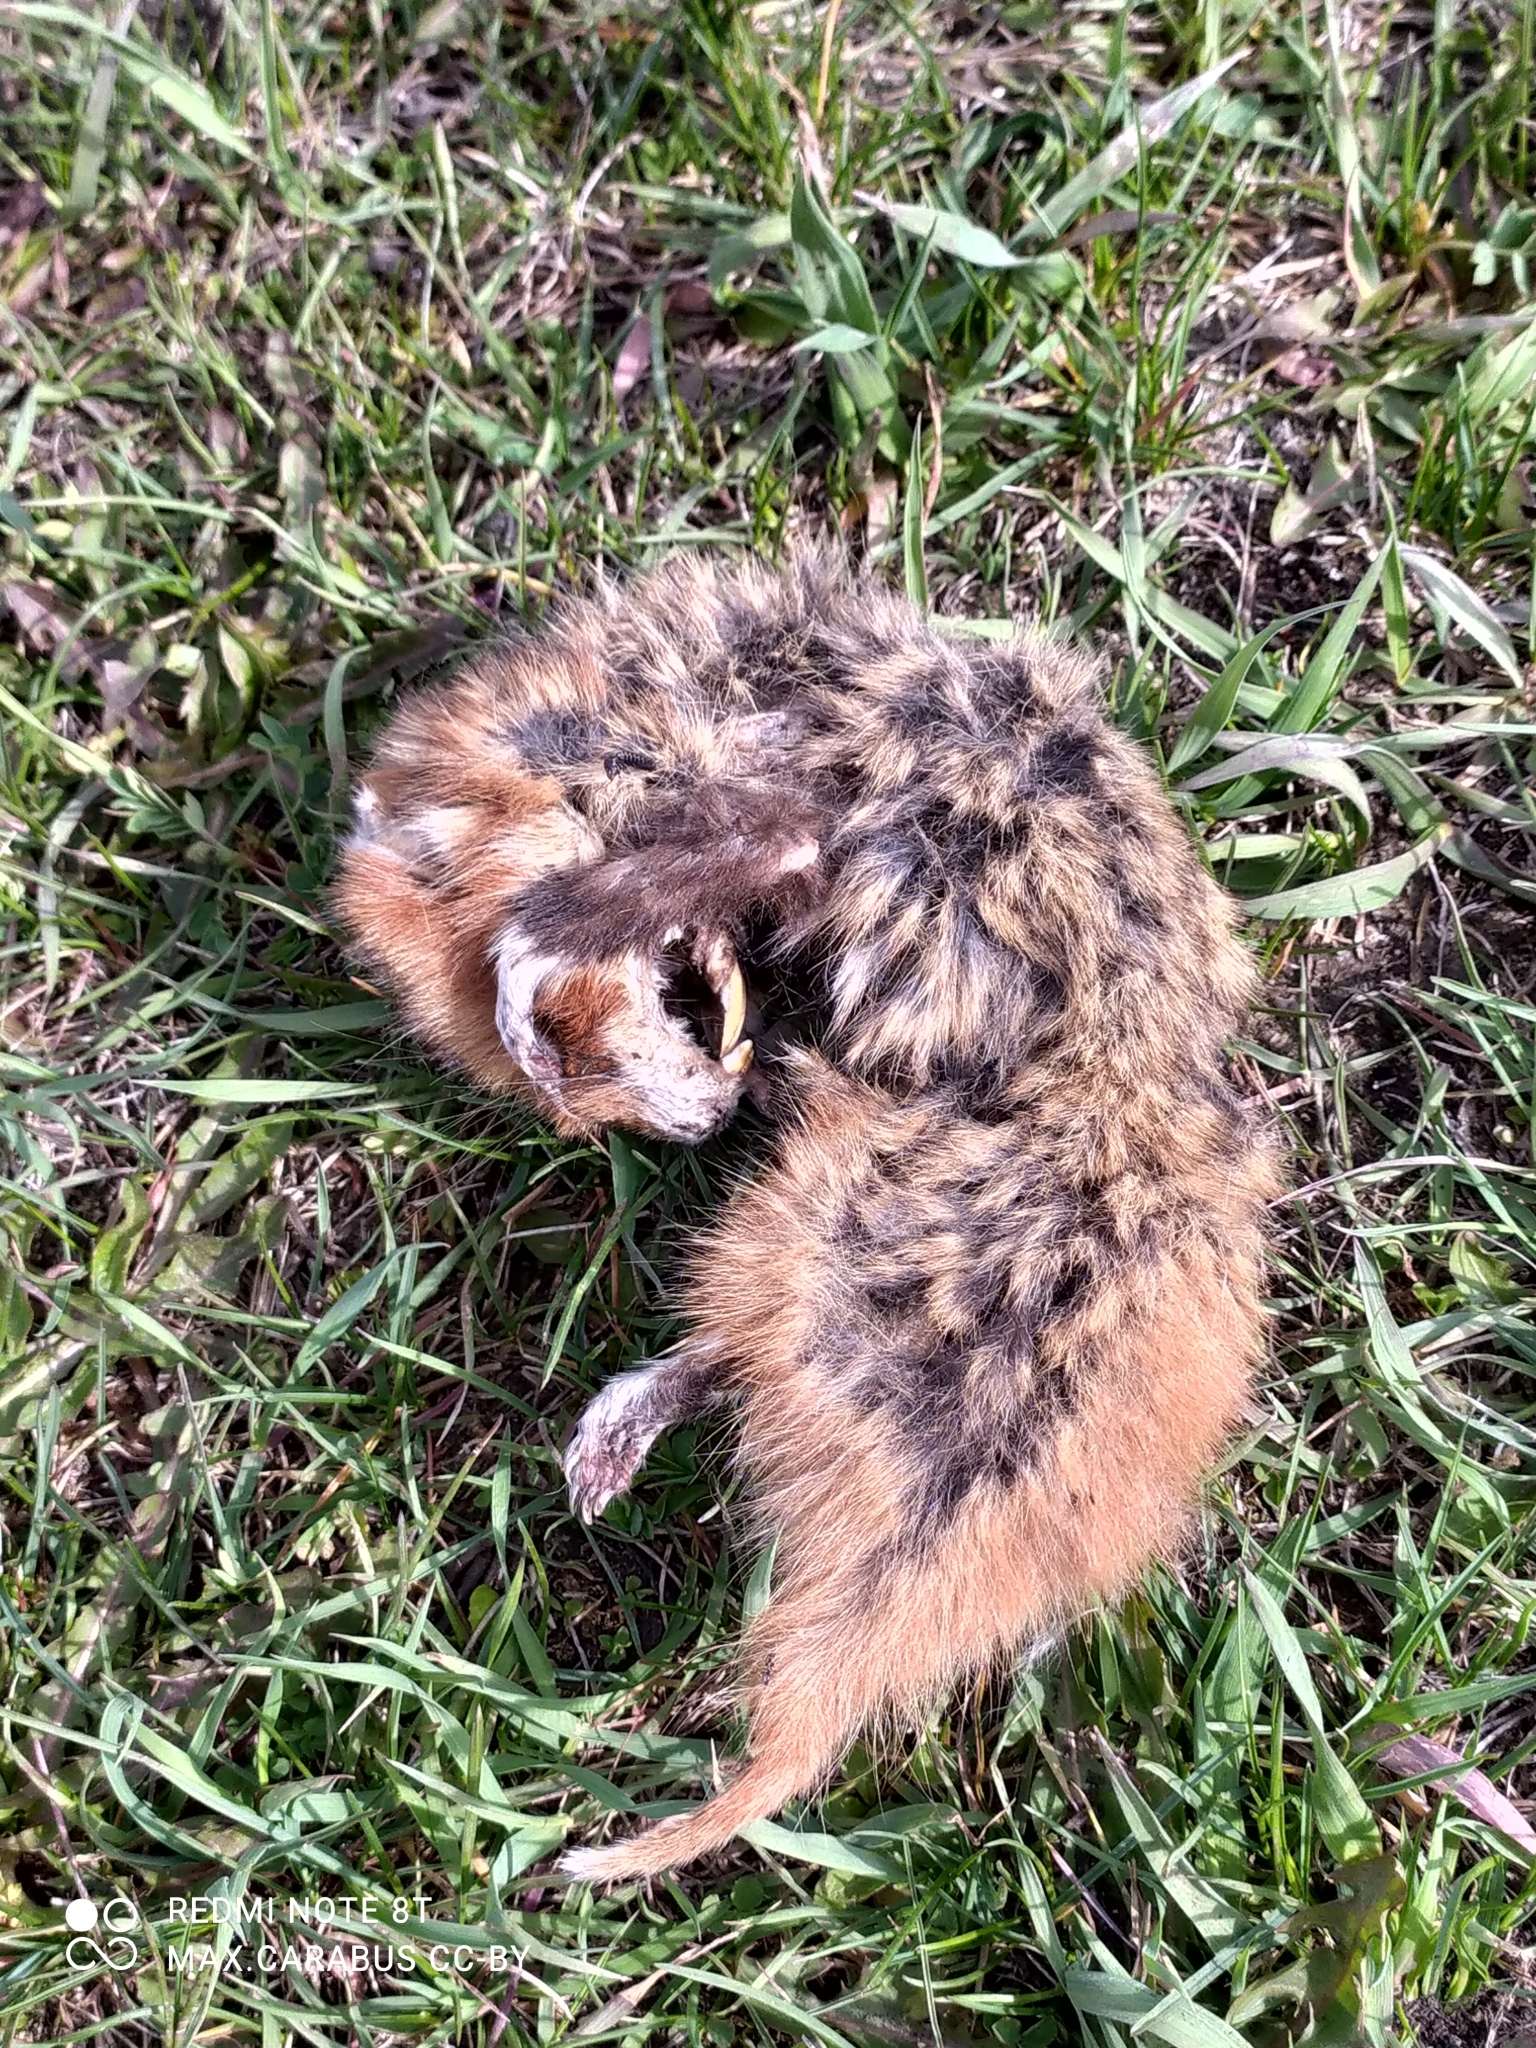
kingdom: Animalia
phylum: Chordata
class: Mammalia
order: Rodentia
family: Cricetidae
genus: Cricetus
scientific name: Cricetus cricetus
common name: Common hamster
